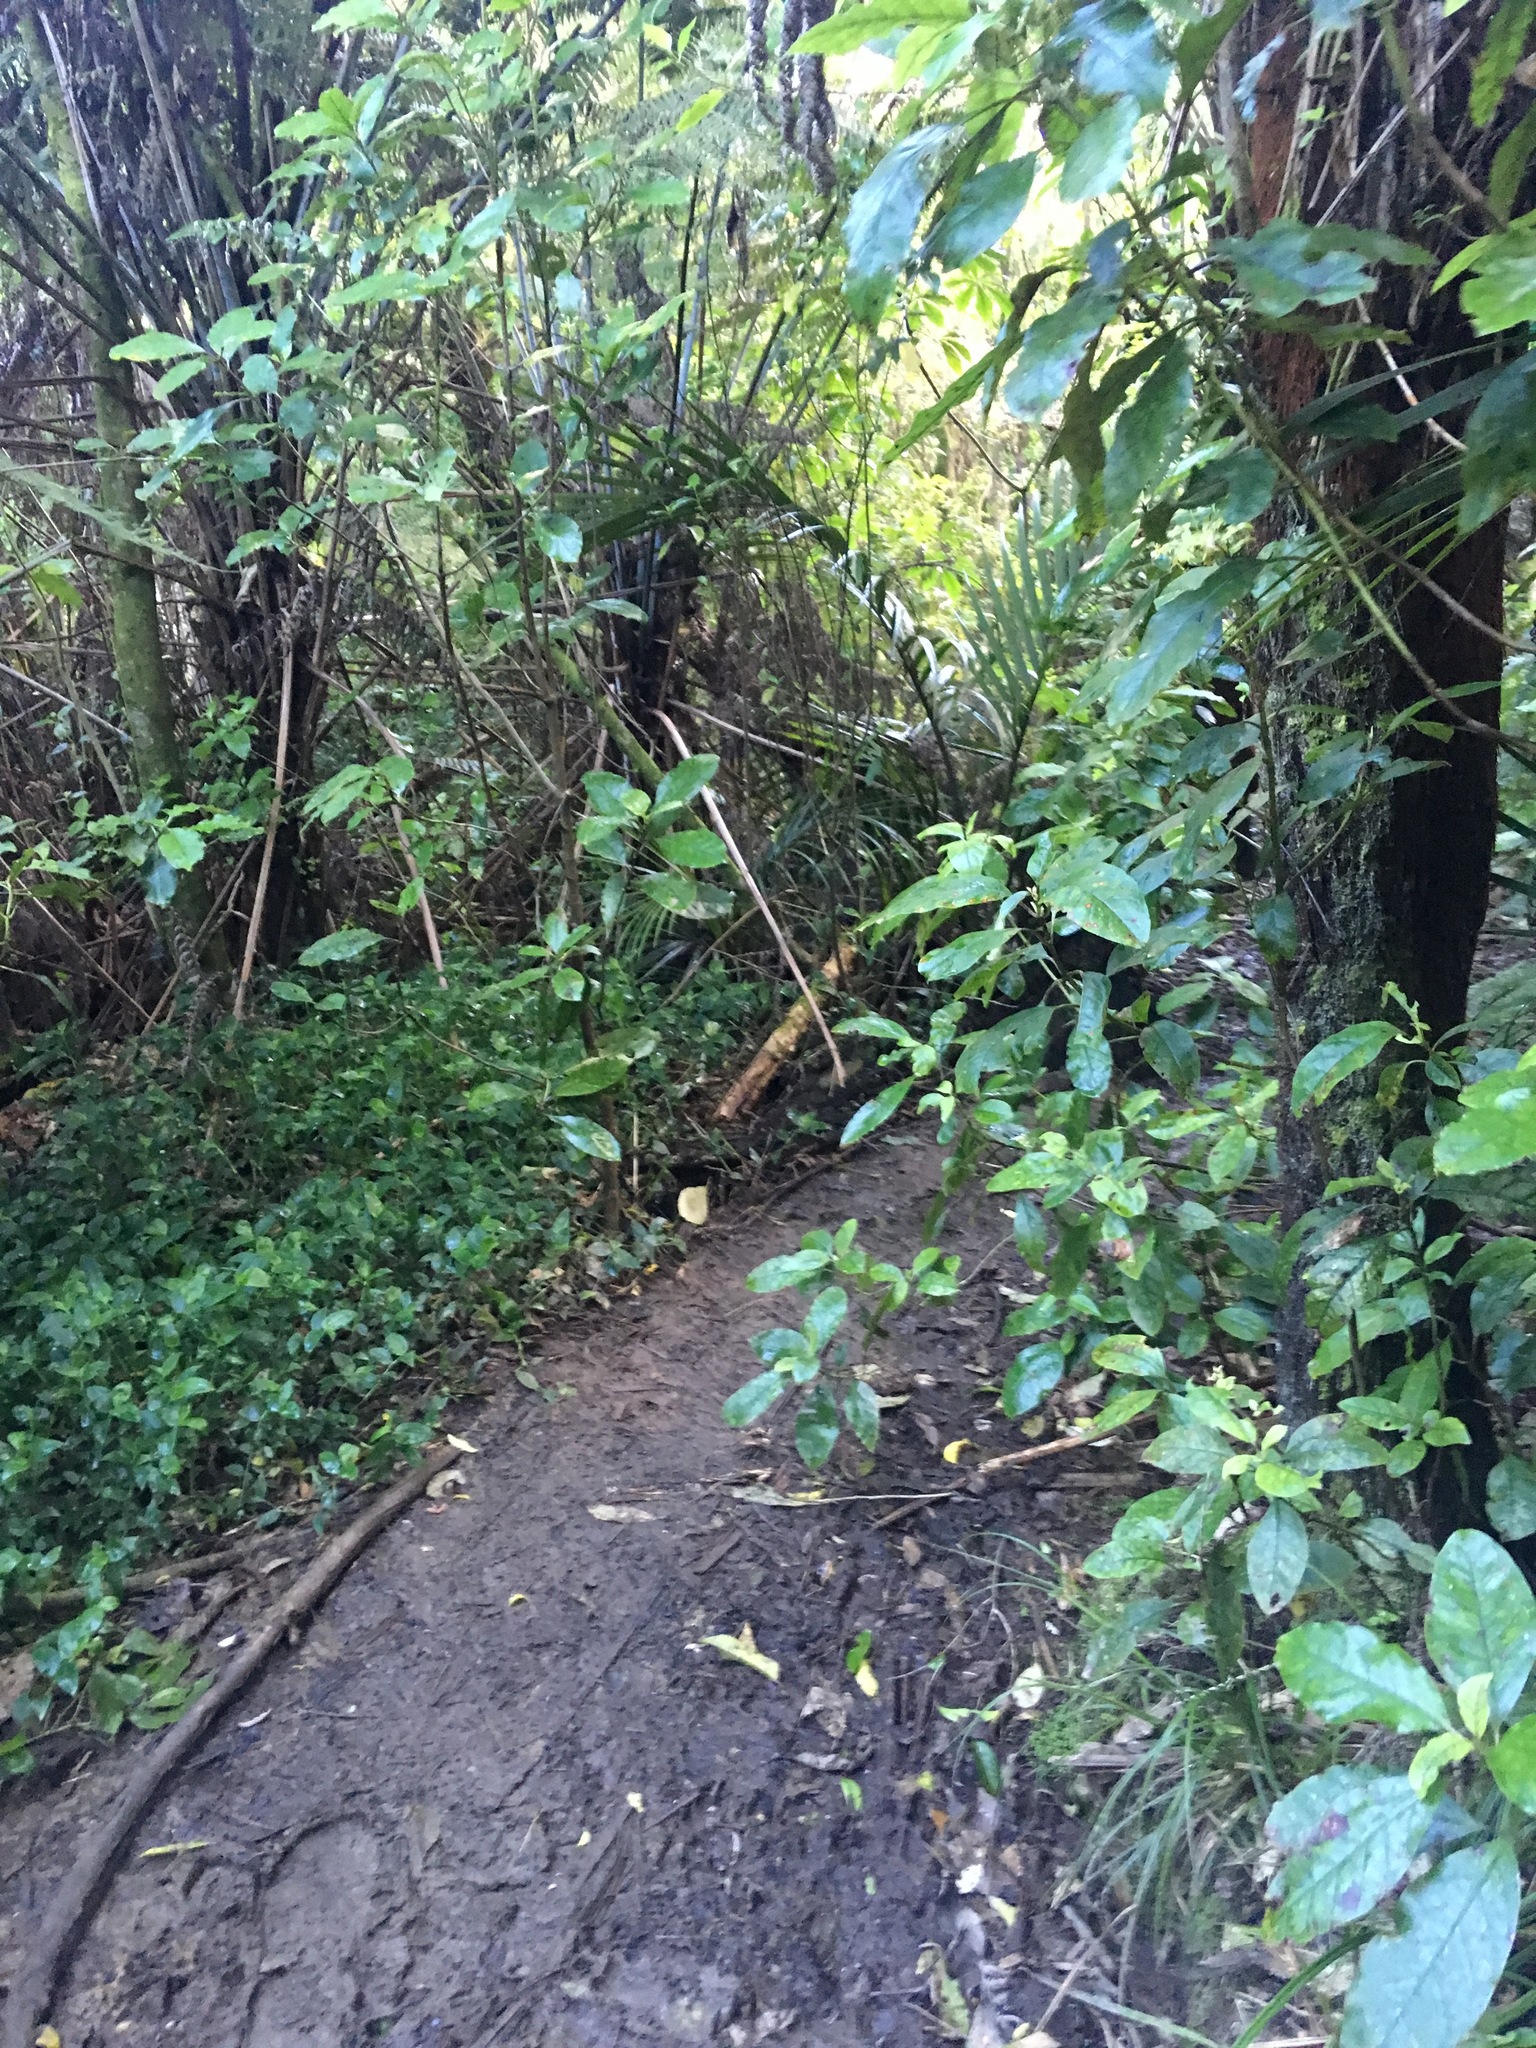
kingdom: Plantae
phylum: Tracheophyta
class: Liliopsida
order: Commelinales
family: Commelinaceae
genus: Tradescantia
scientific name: Tradescantia fluminensis
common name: Wandering-jew
